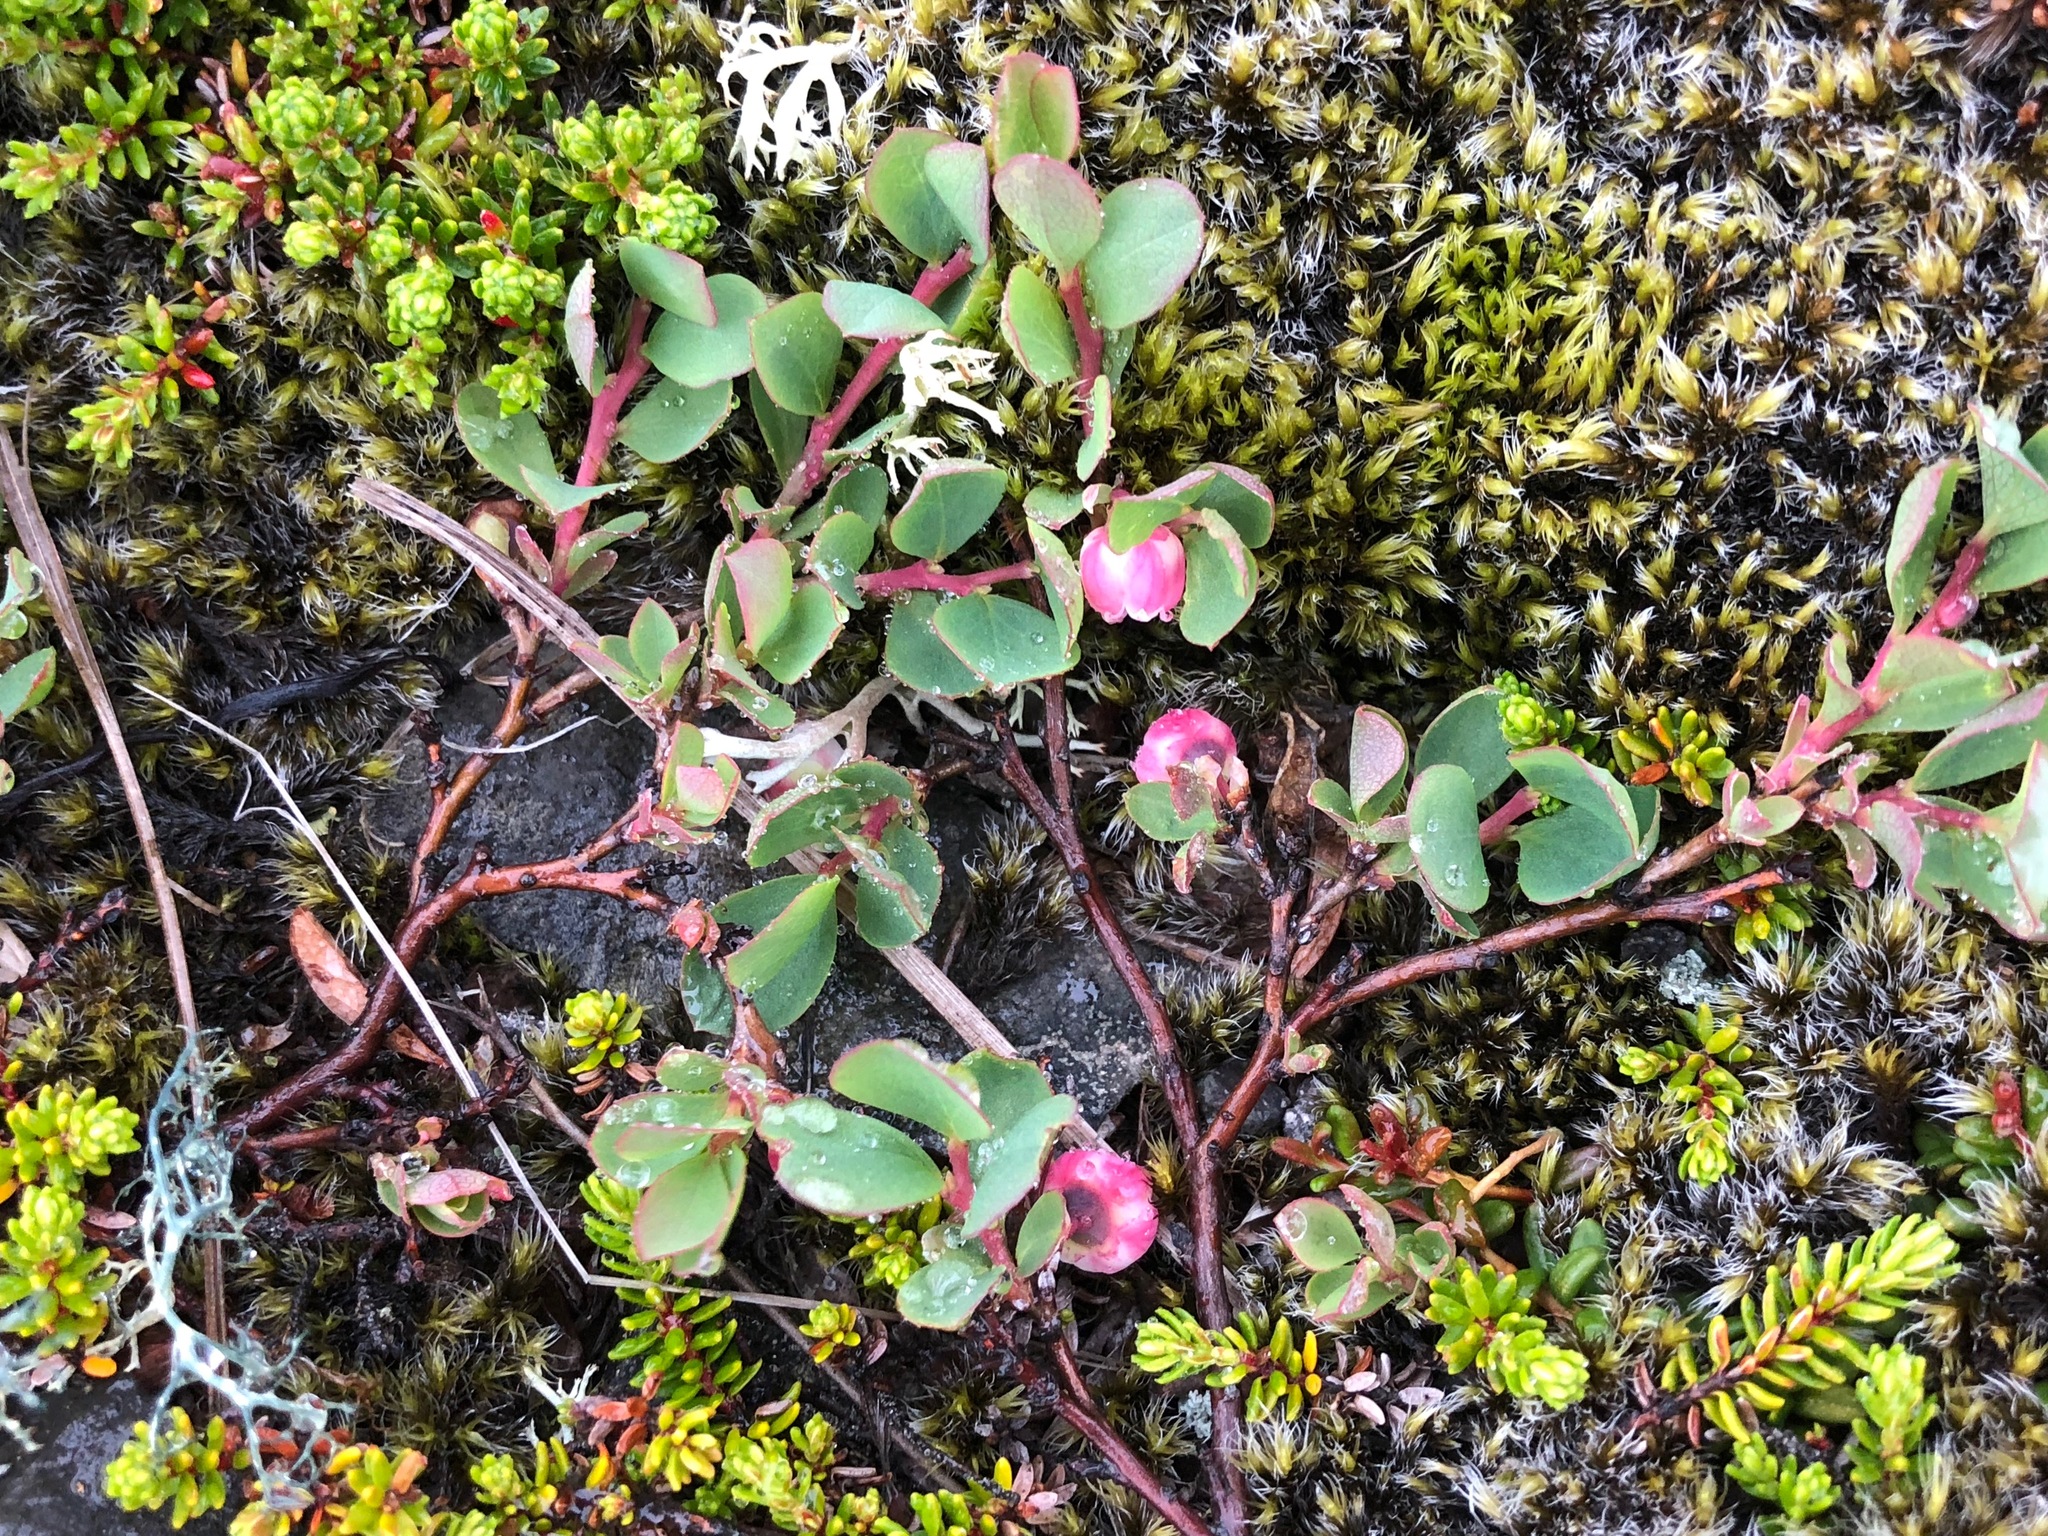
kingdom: Plantae
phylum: Tracheophyta
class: Magnoliopsida
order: Ericales
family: Ericaceae
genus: Vaccinium
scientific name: Vaccinium uliginosum
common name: Bog bilberry
